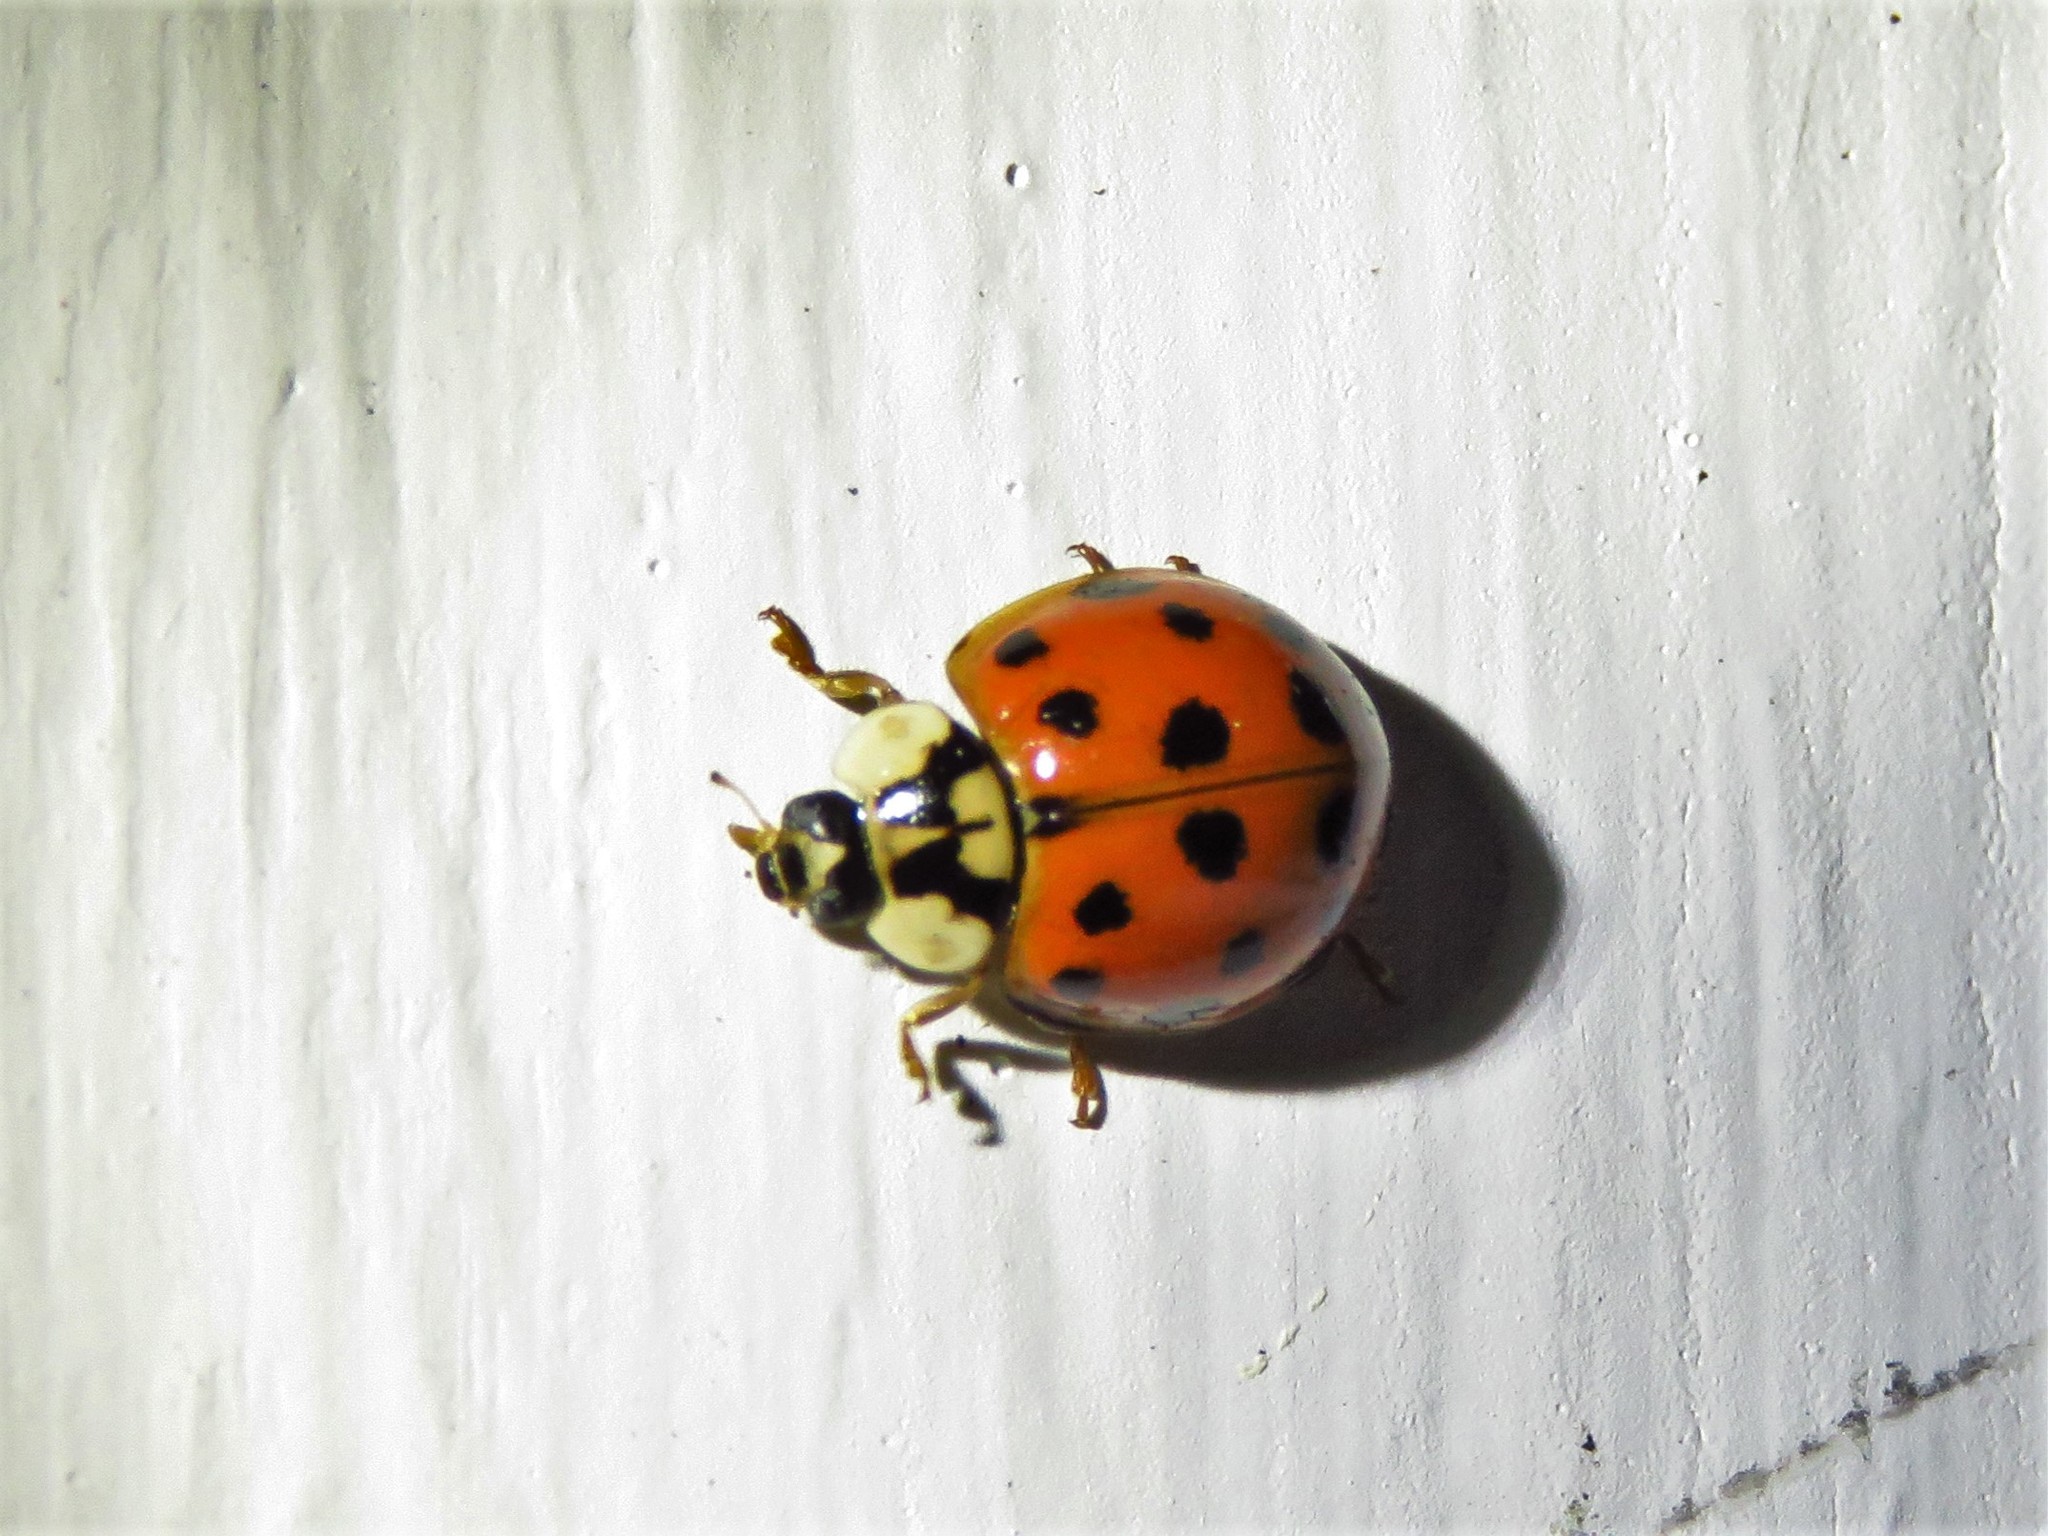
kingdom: Animalia
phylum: Arthropoda
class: Insecta
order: Coleoptera
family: Coccinellidae
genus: Harmonia
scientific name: Harmonia axyridis
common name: Harlequin ladybird
